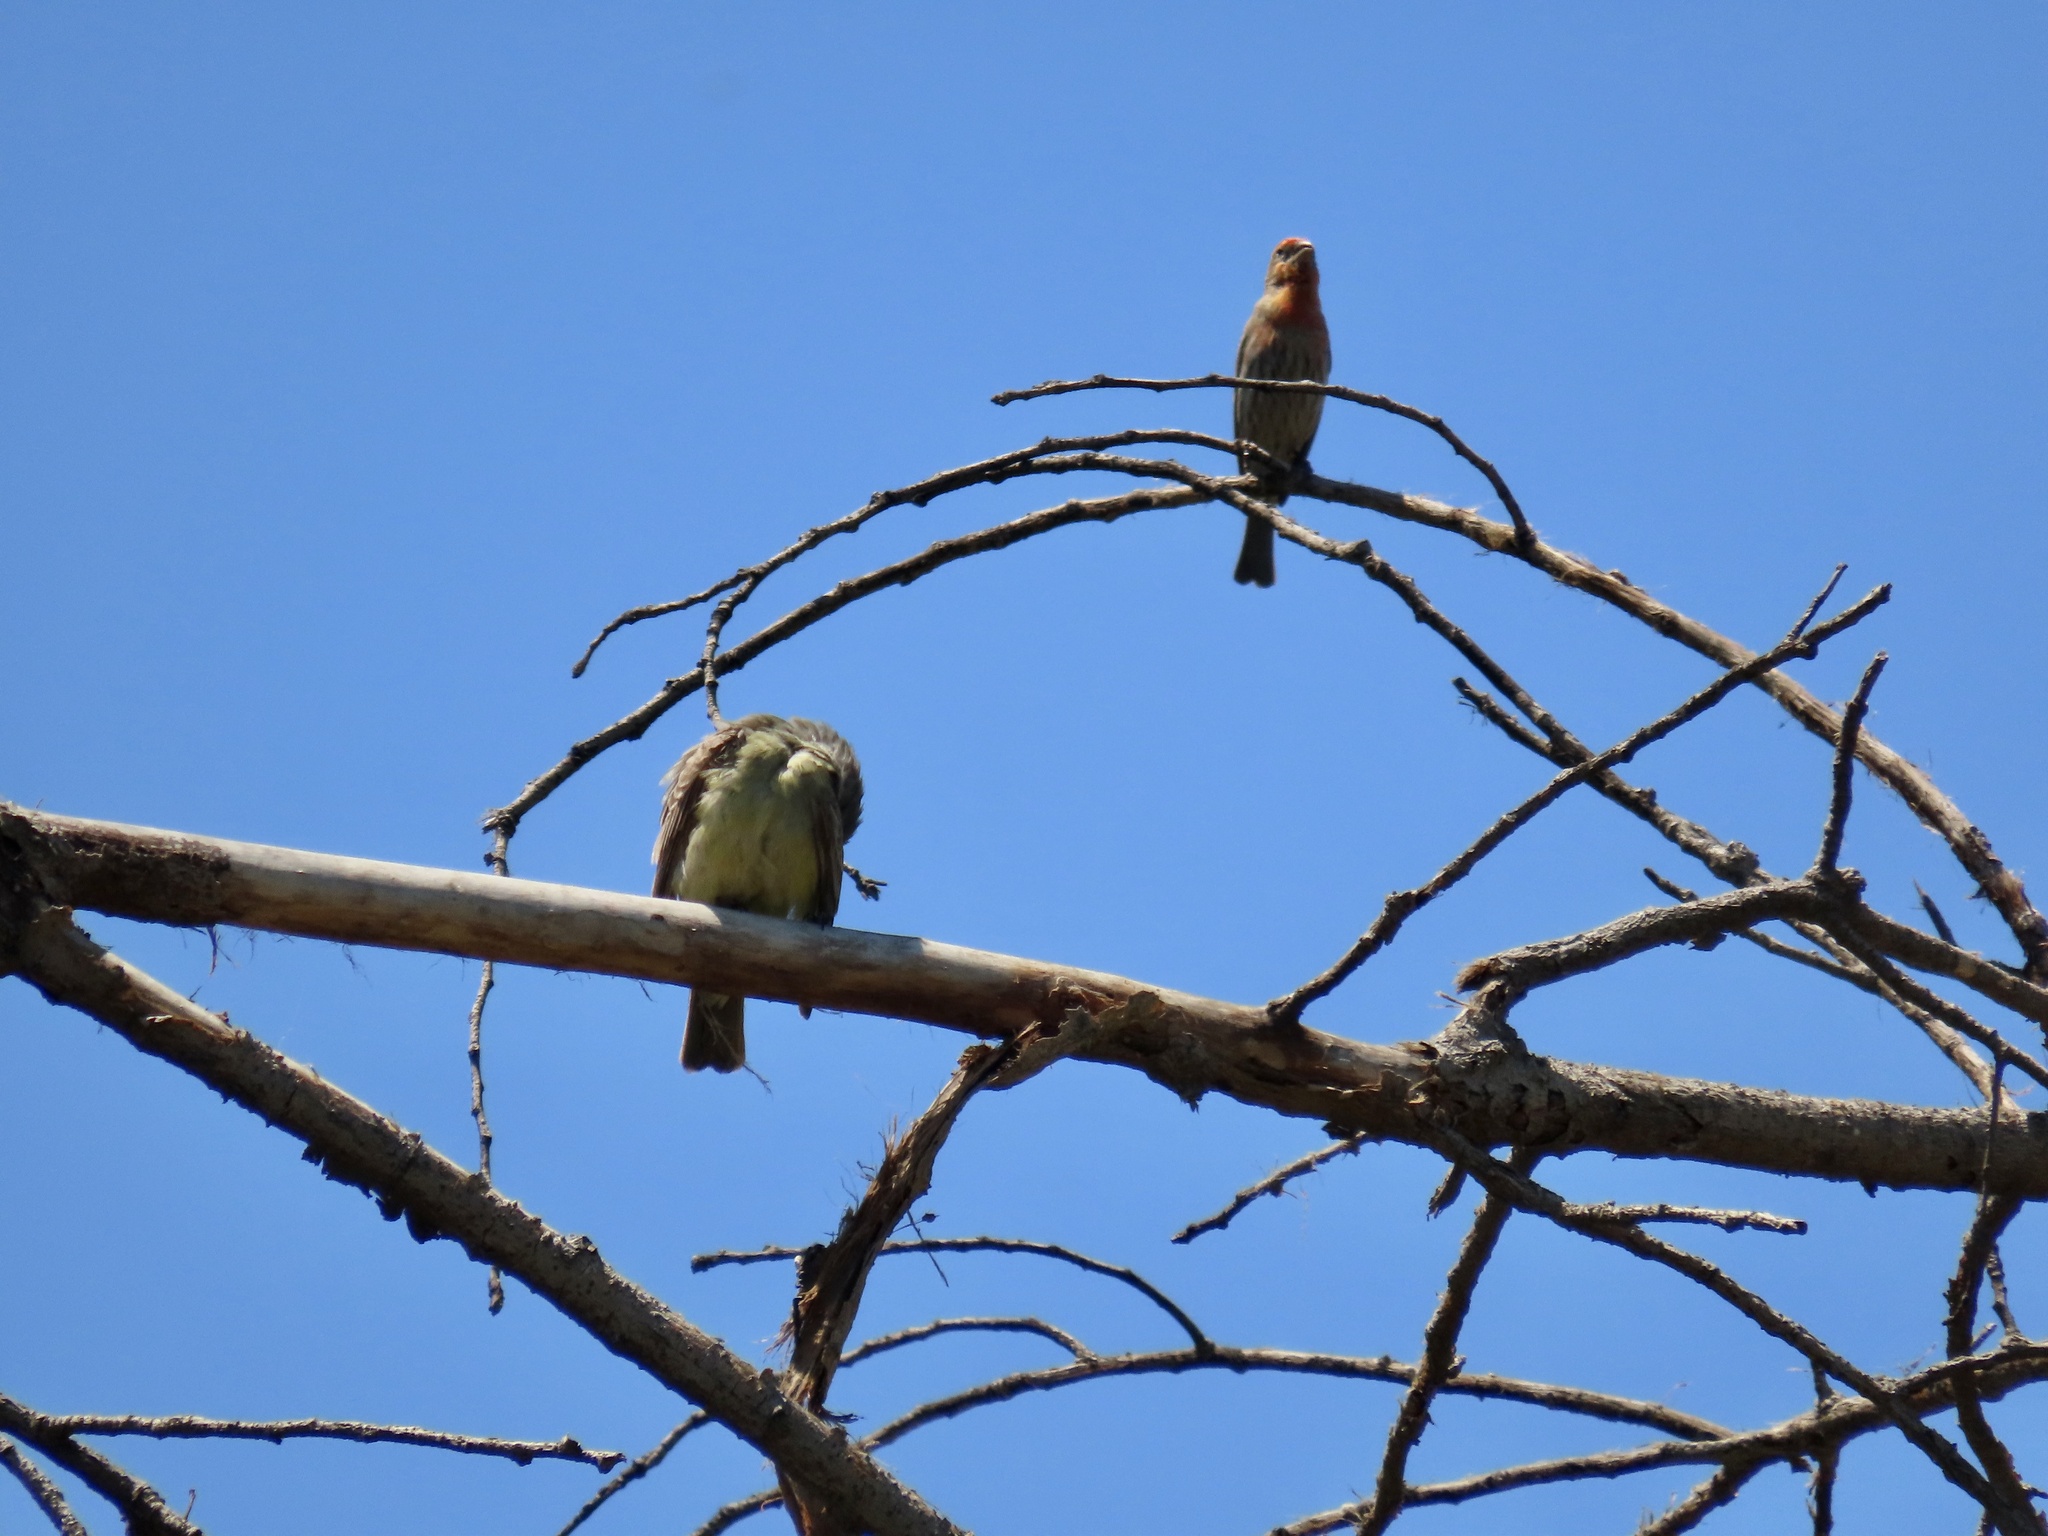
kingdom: Animalia
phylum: Chordata
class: Aves
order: Passeriformes
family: Fringillidae
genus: Haemorhous
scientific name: Haemorhous mexicanus
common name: House finch
